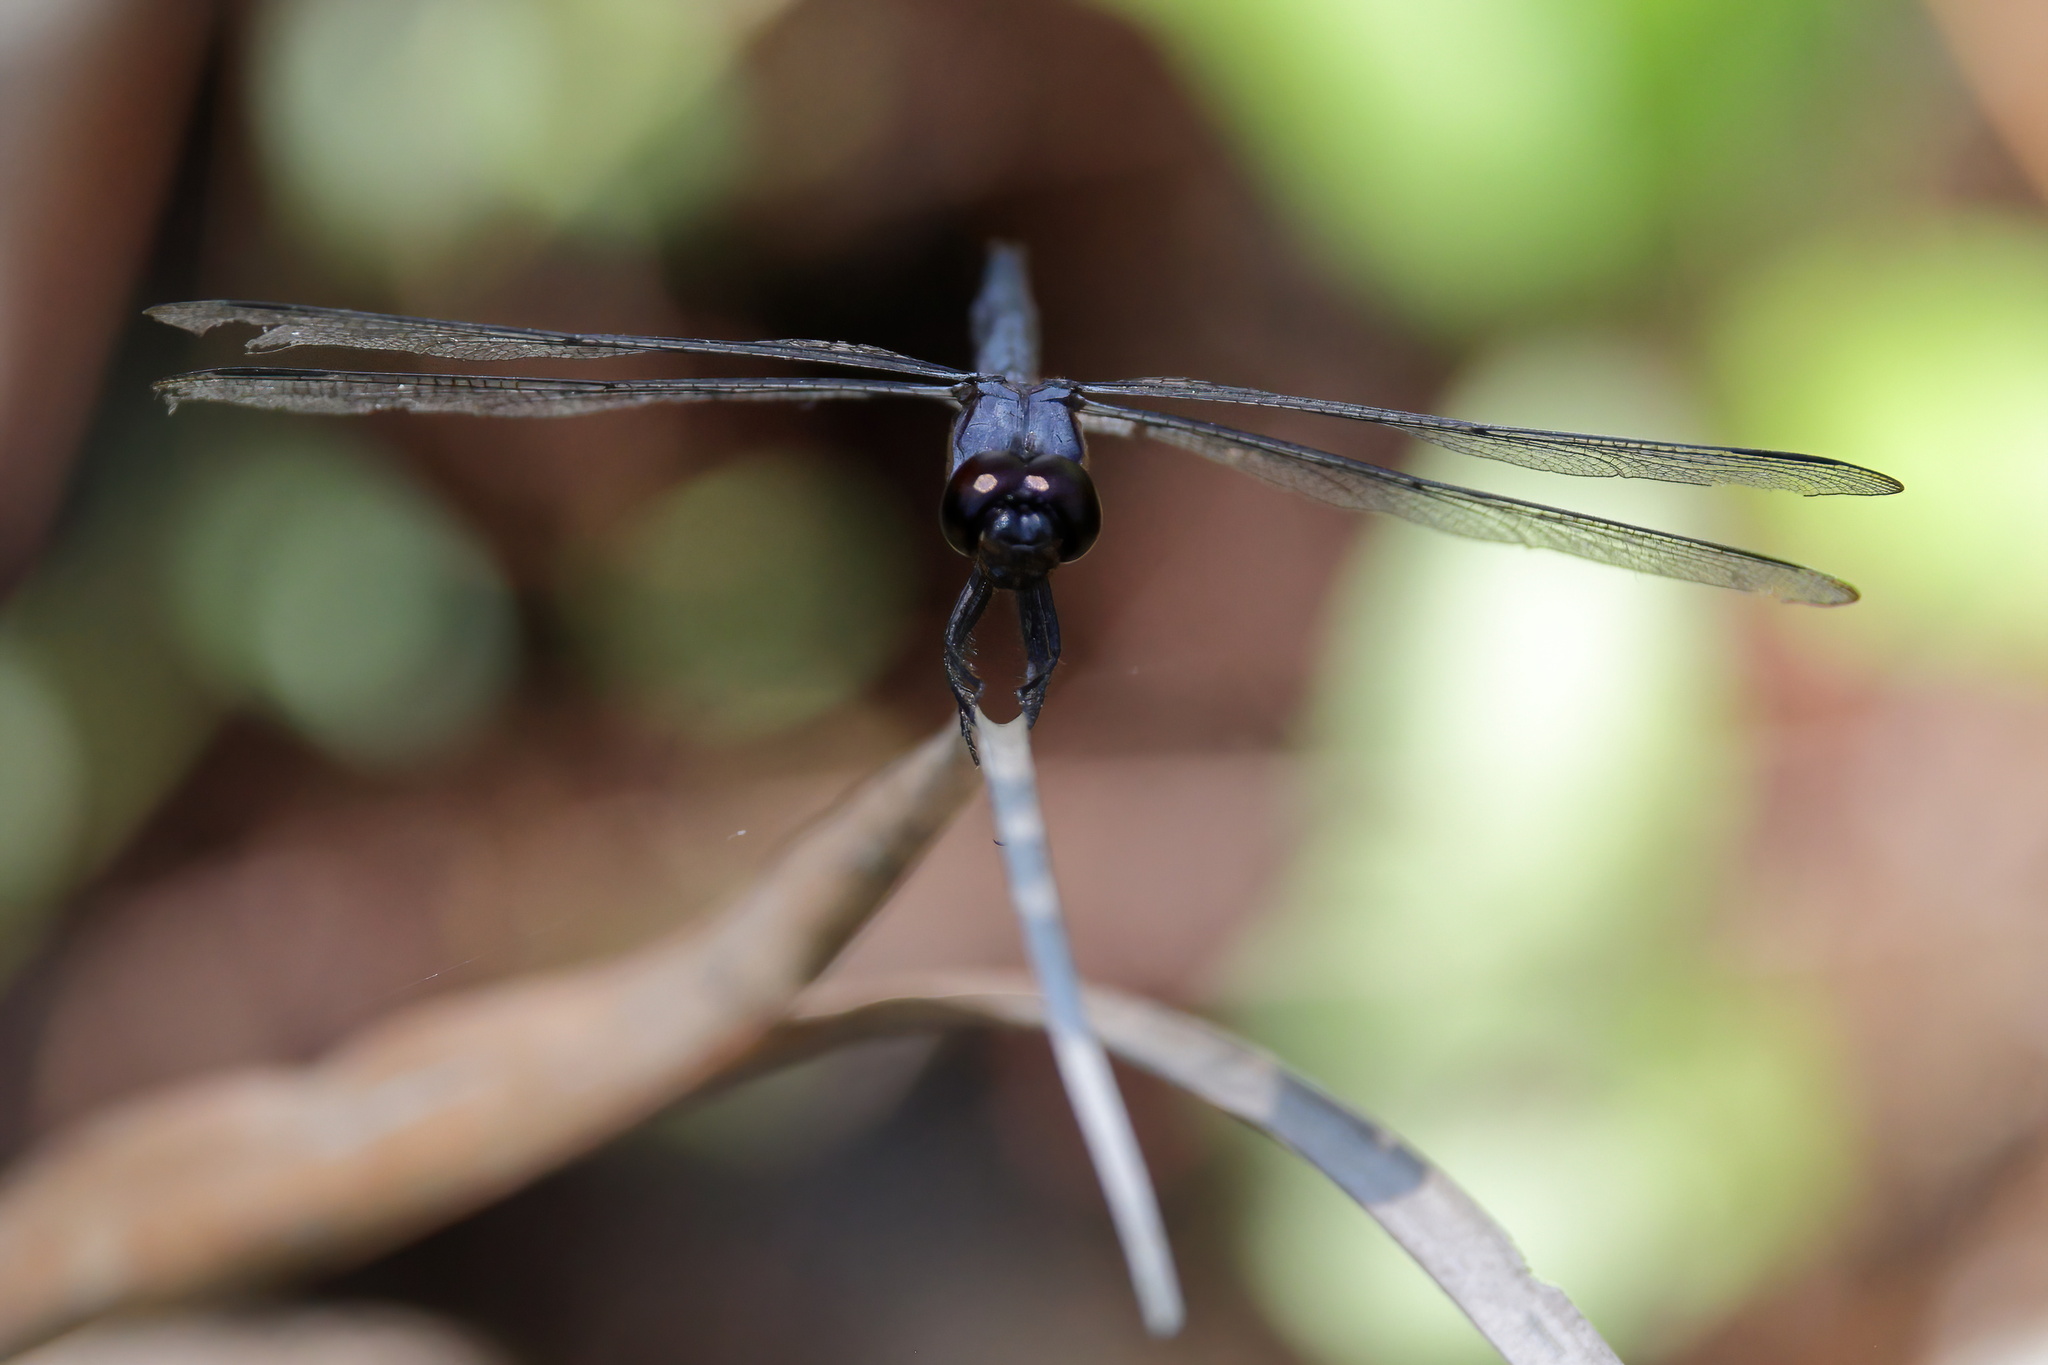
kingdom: Animalia
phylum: Arthropoda
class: Insecta
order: Odonata
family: Libellulidae
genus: Libellula
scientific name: Libellula incesta
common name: Slaty skimmer
